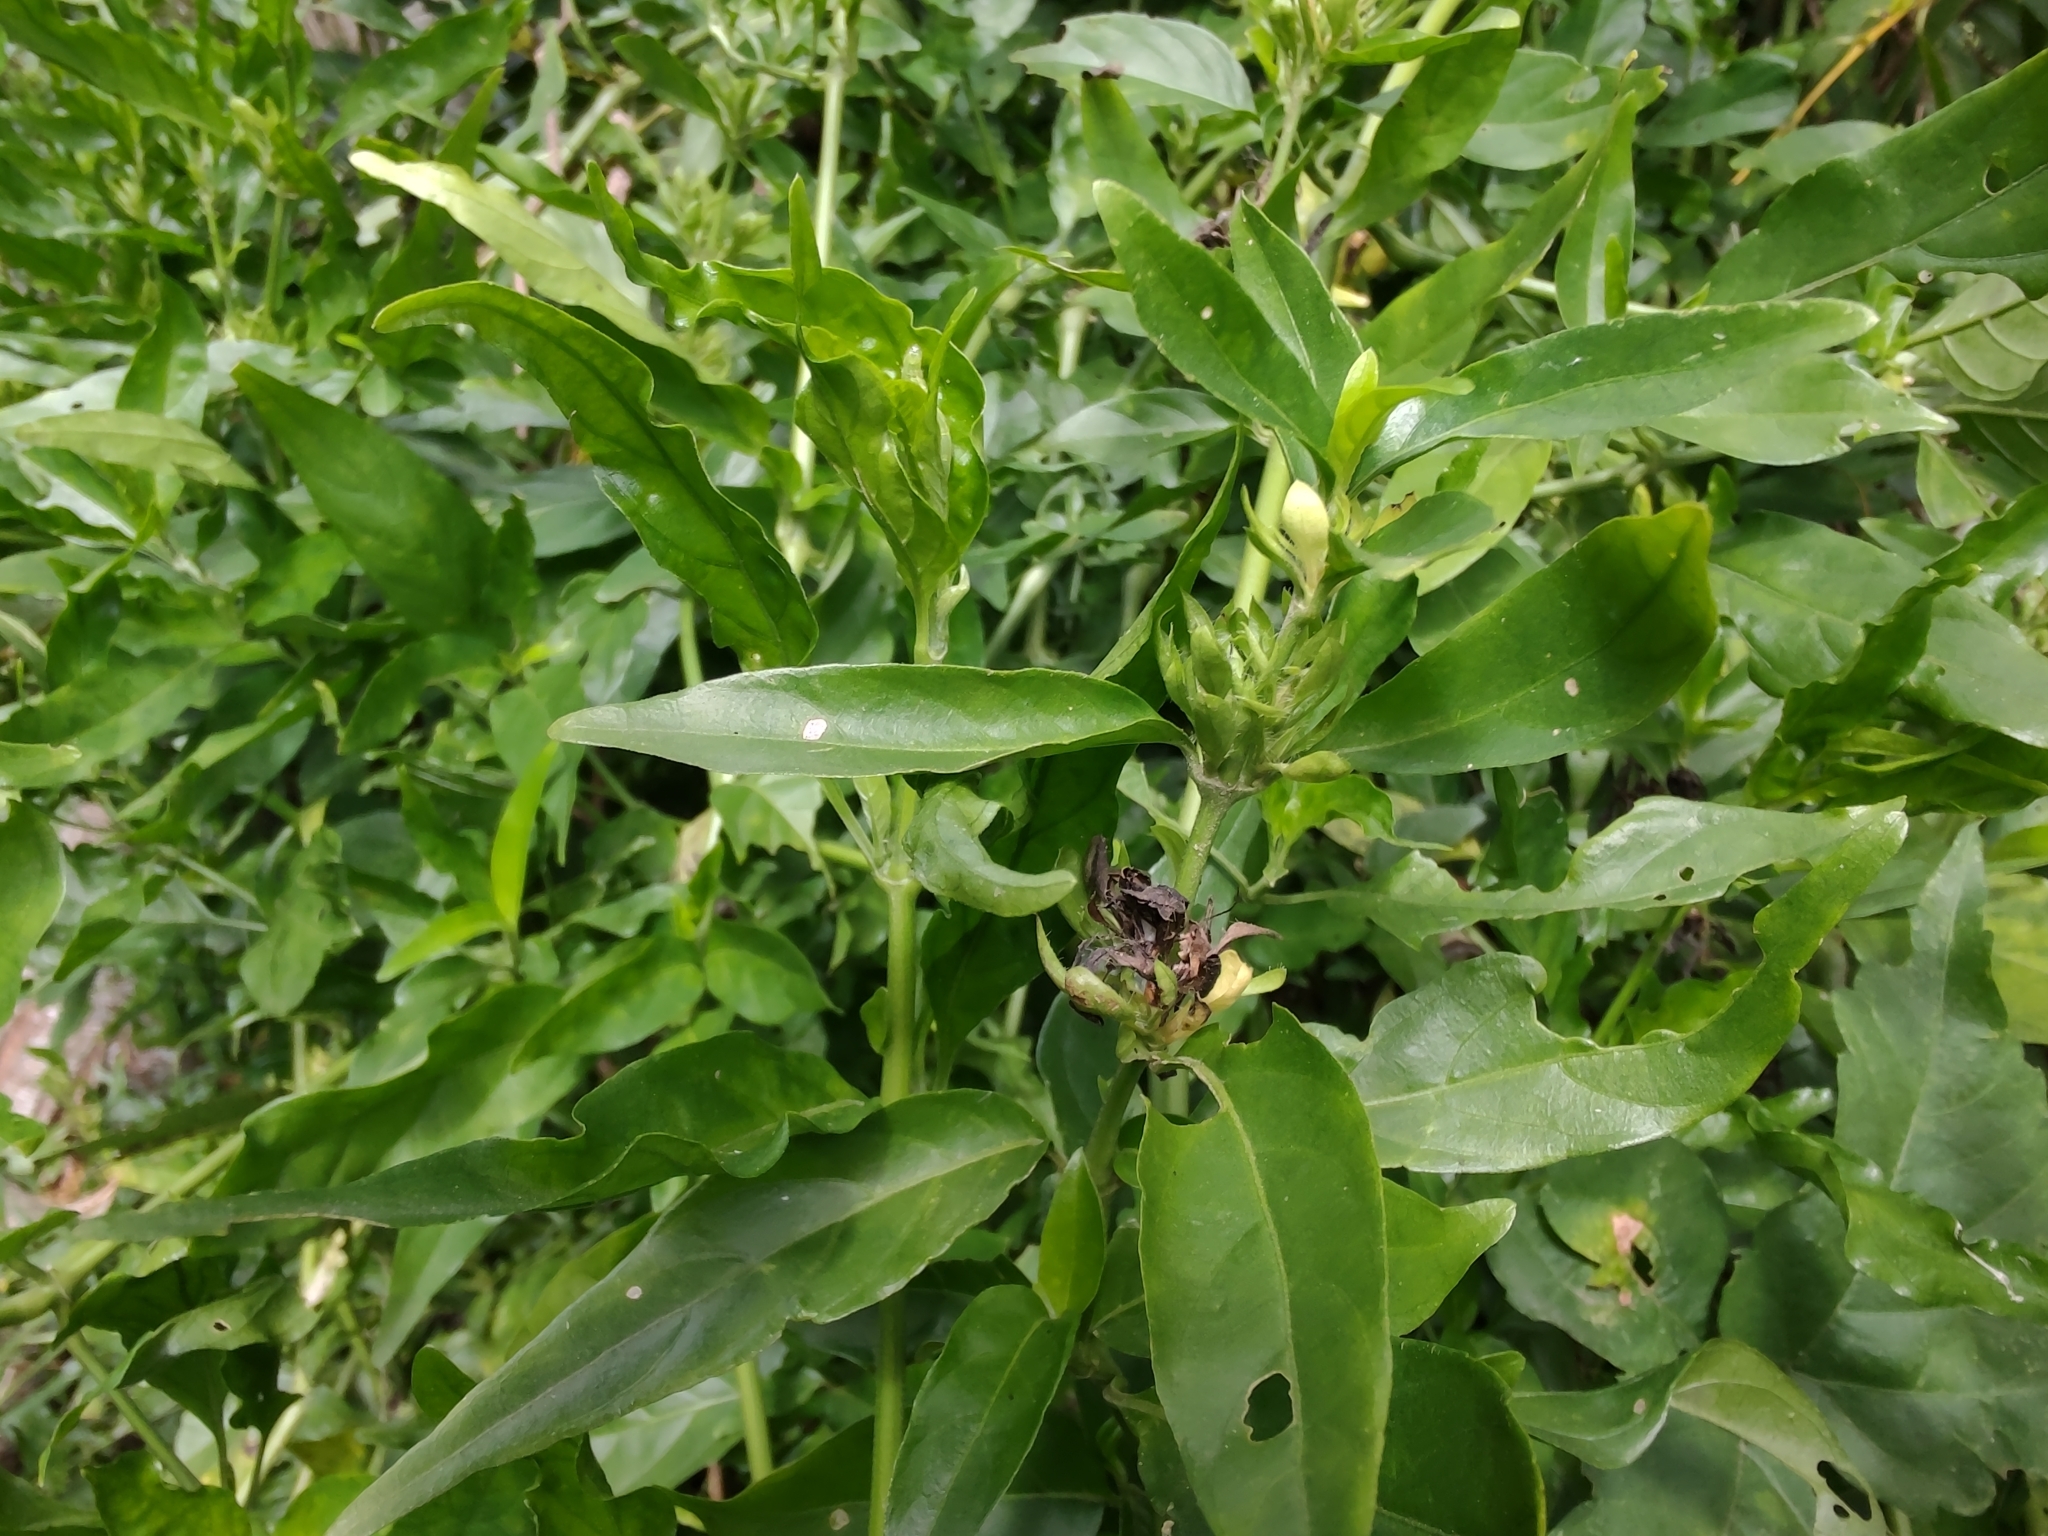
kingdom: Plantae
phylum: Tracheophyta
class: Magnoliopsida
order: Lamiales
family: Acanthaceae
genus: Poikilacanthus
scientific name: Poikilacanthus glandulosus
